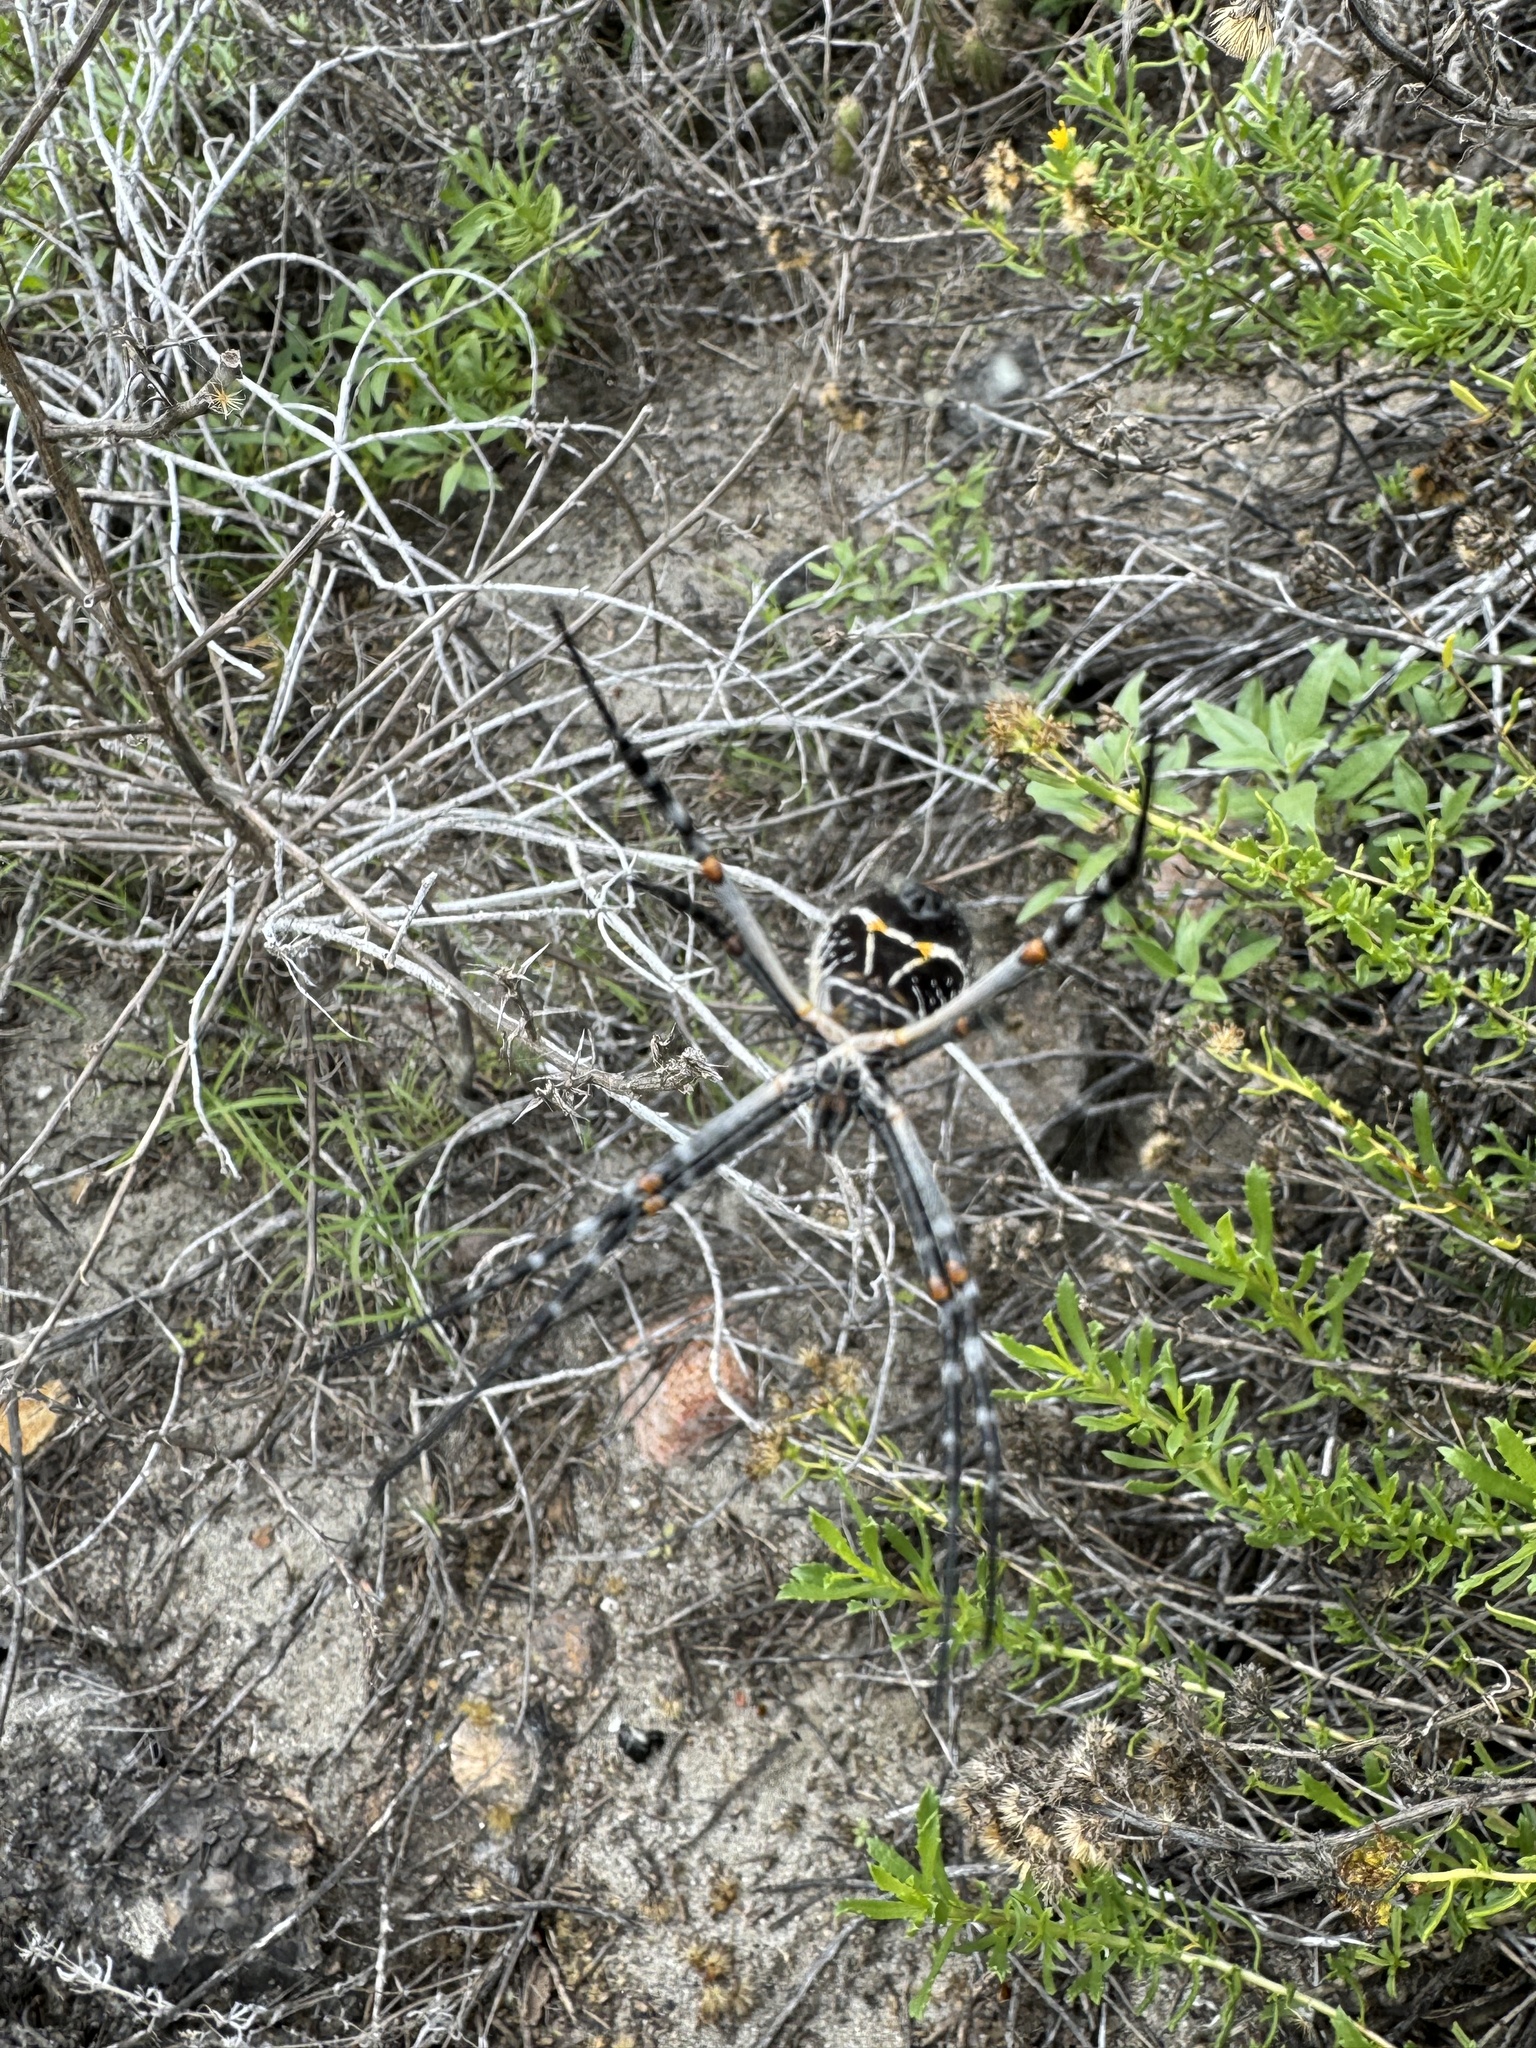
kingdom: Animalia
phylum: Arthropoda
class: Arachnida
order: Araneae
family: Araneidae
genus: Argiope
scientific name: Argiope argentata
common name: Orb weavers
